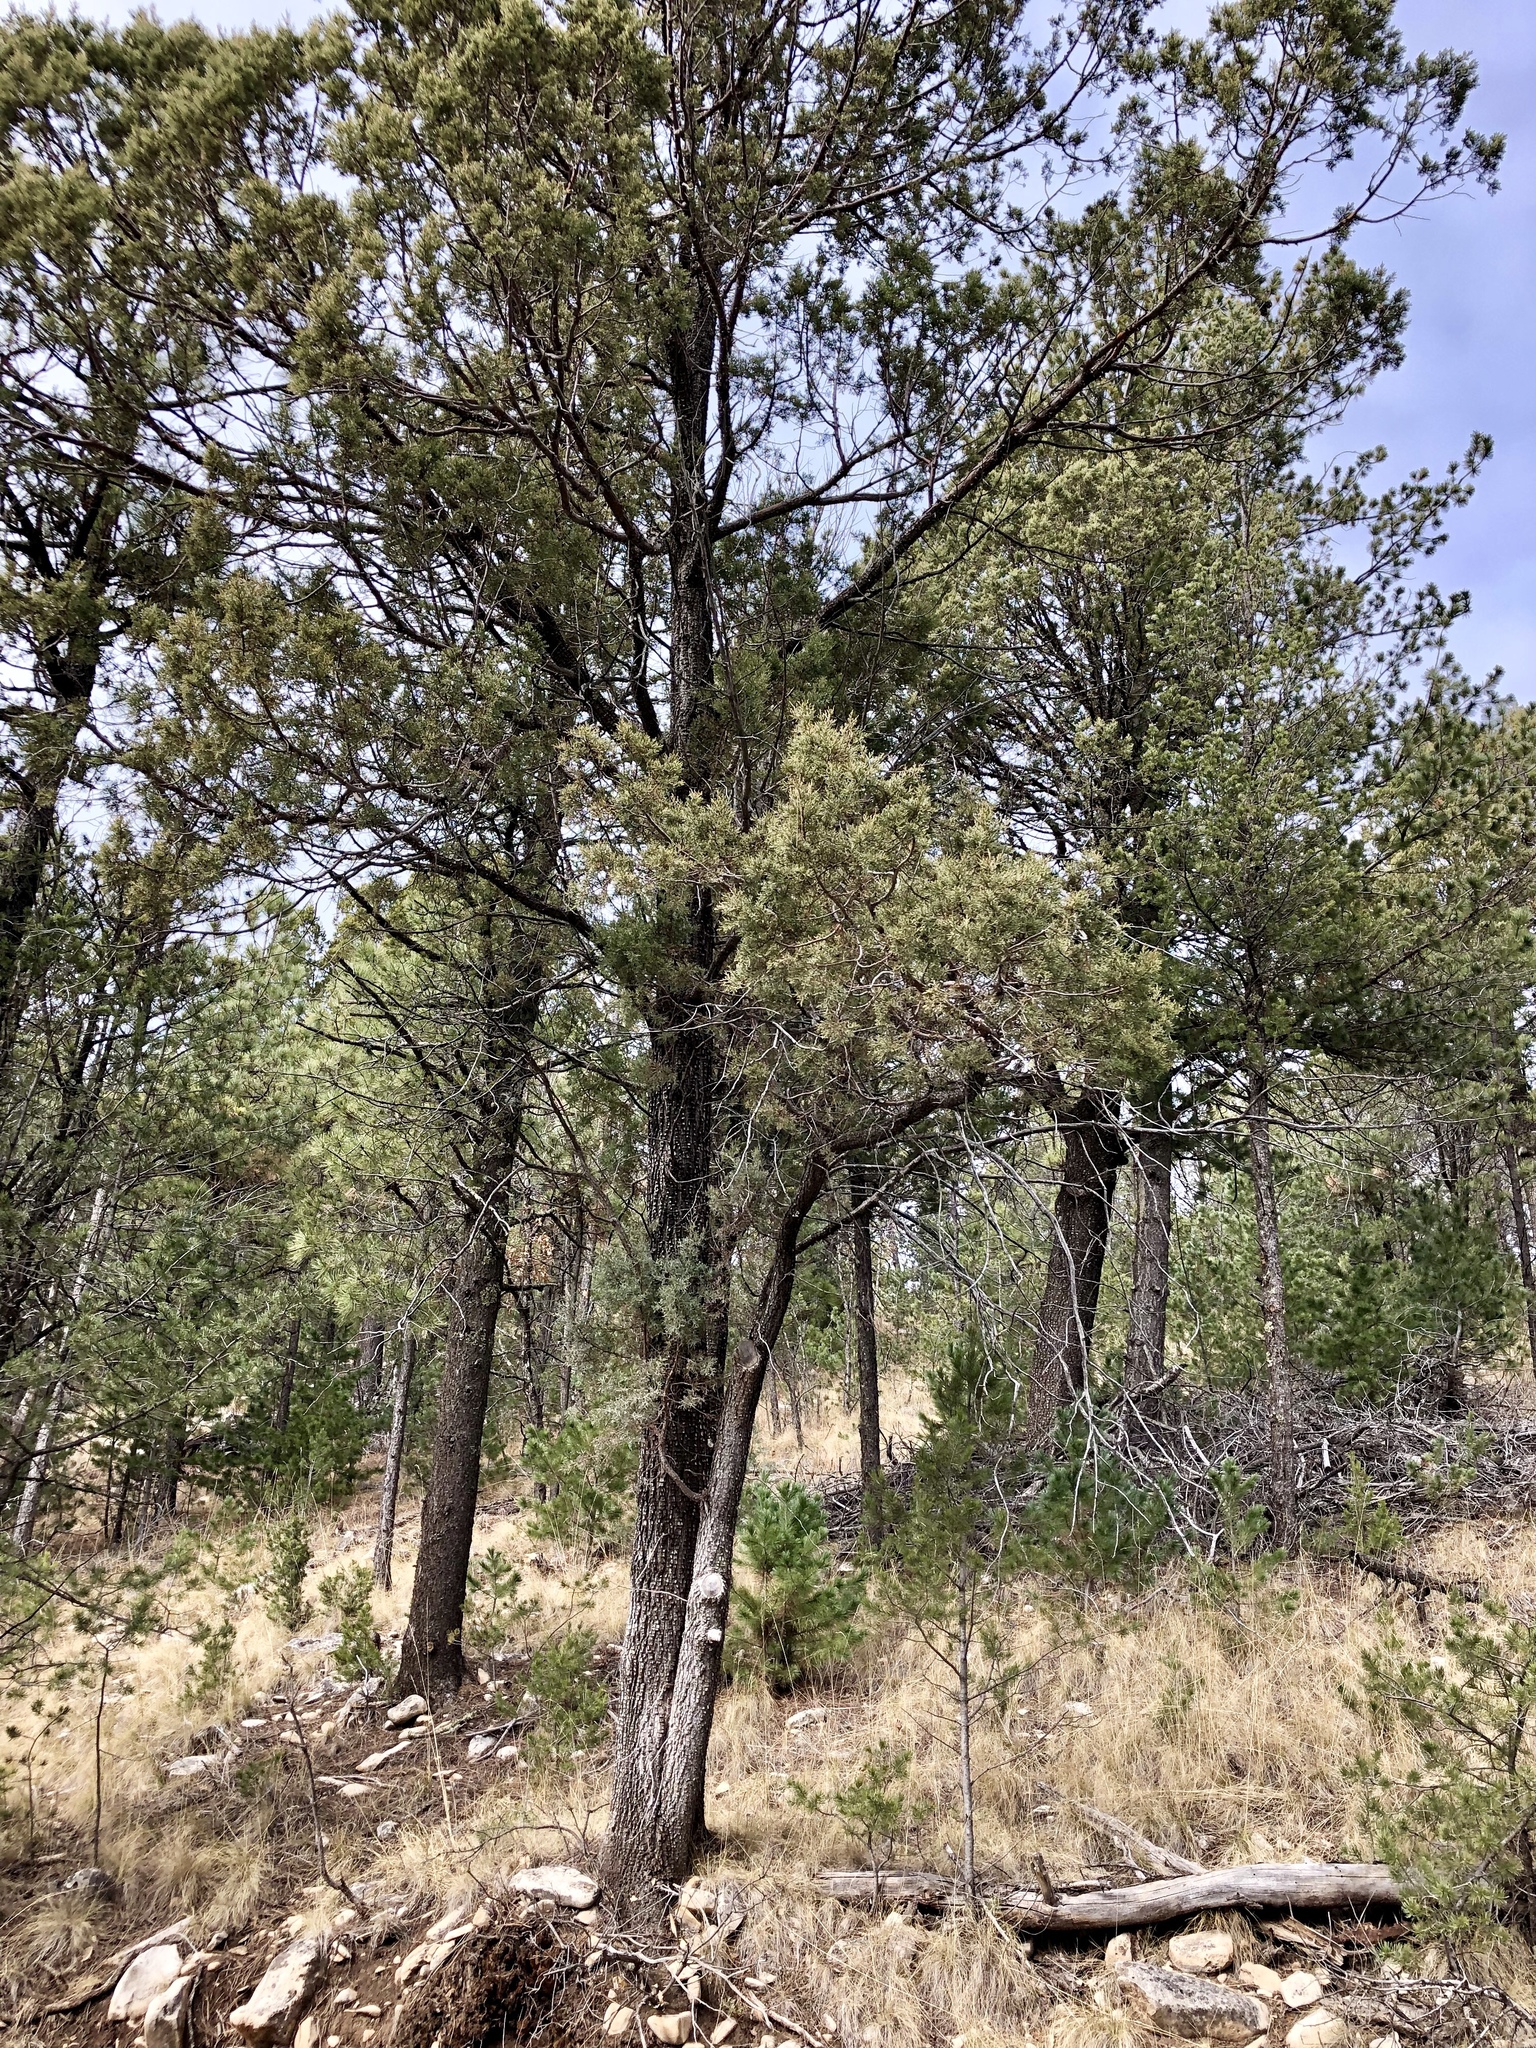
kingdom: Plantae
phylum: Tracheophyta
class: Pinopsida
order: Pinales
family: Cupressaceae
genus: Juniperus
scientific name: Juniperus deppeana
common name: Alligator juniper
